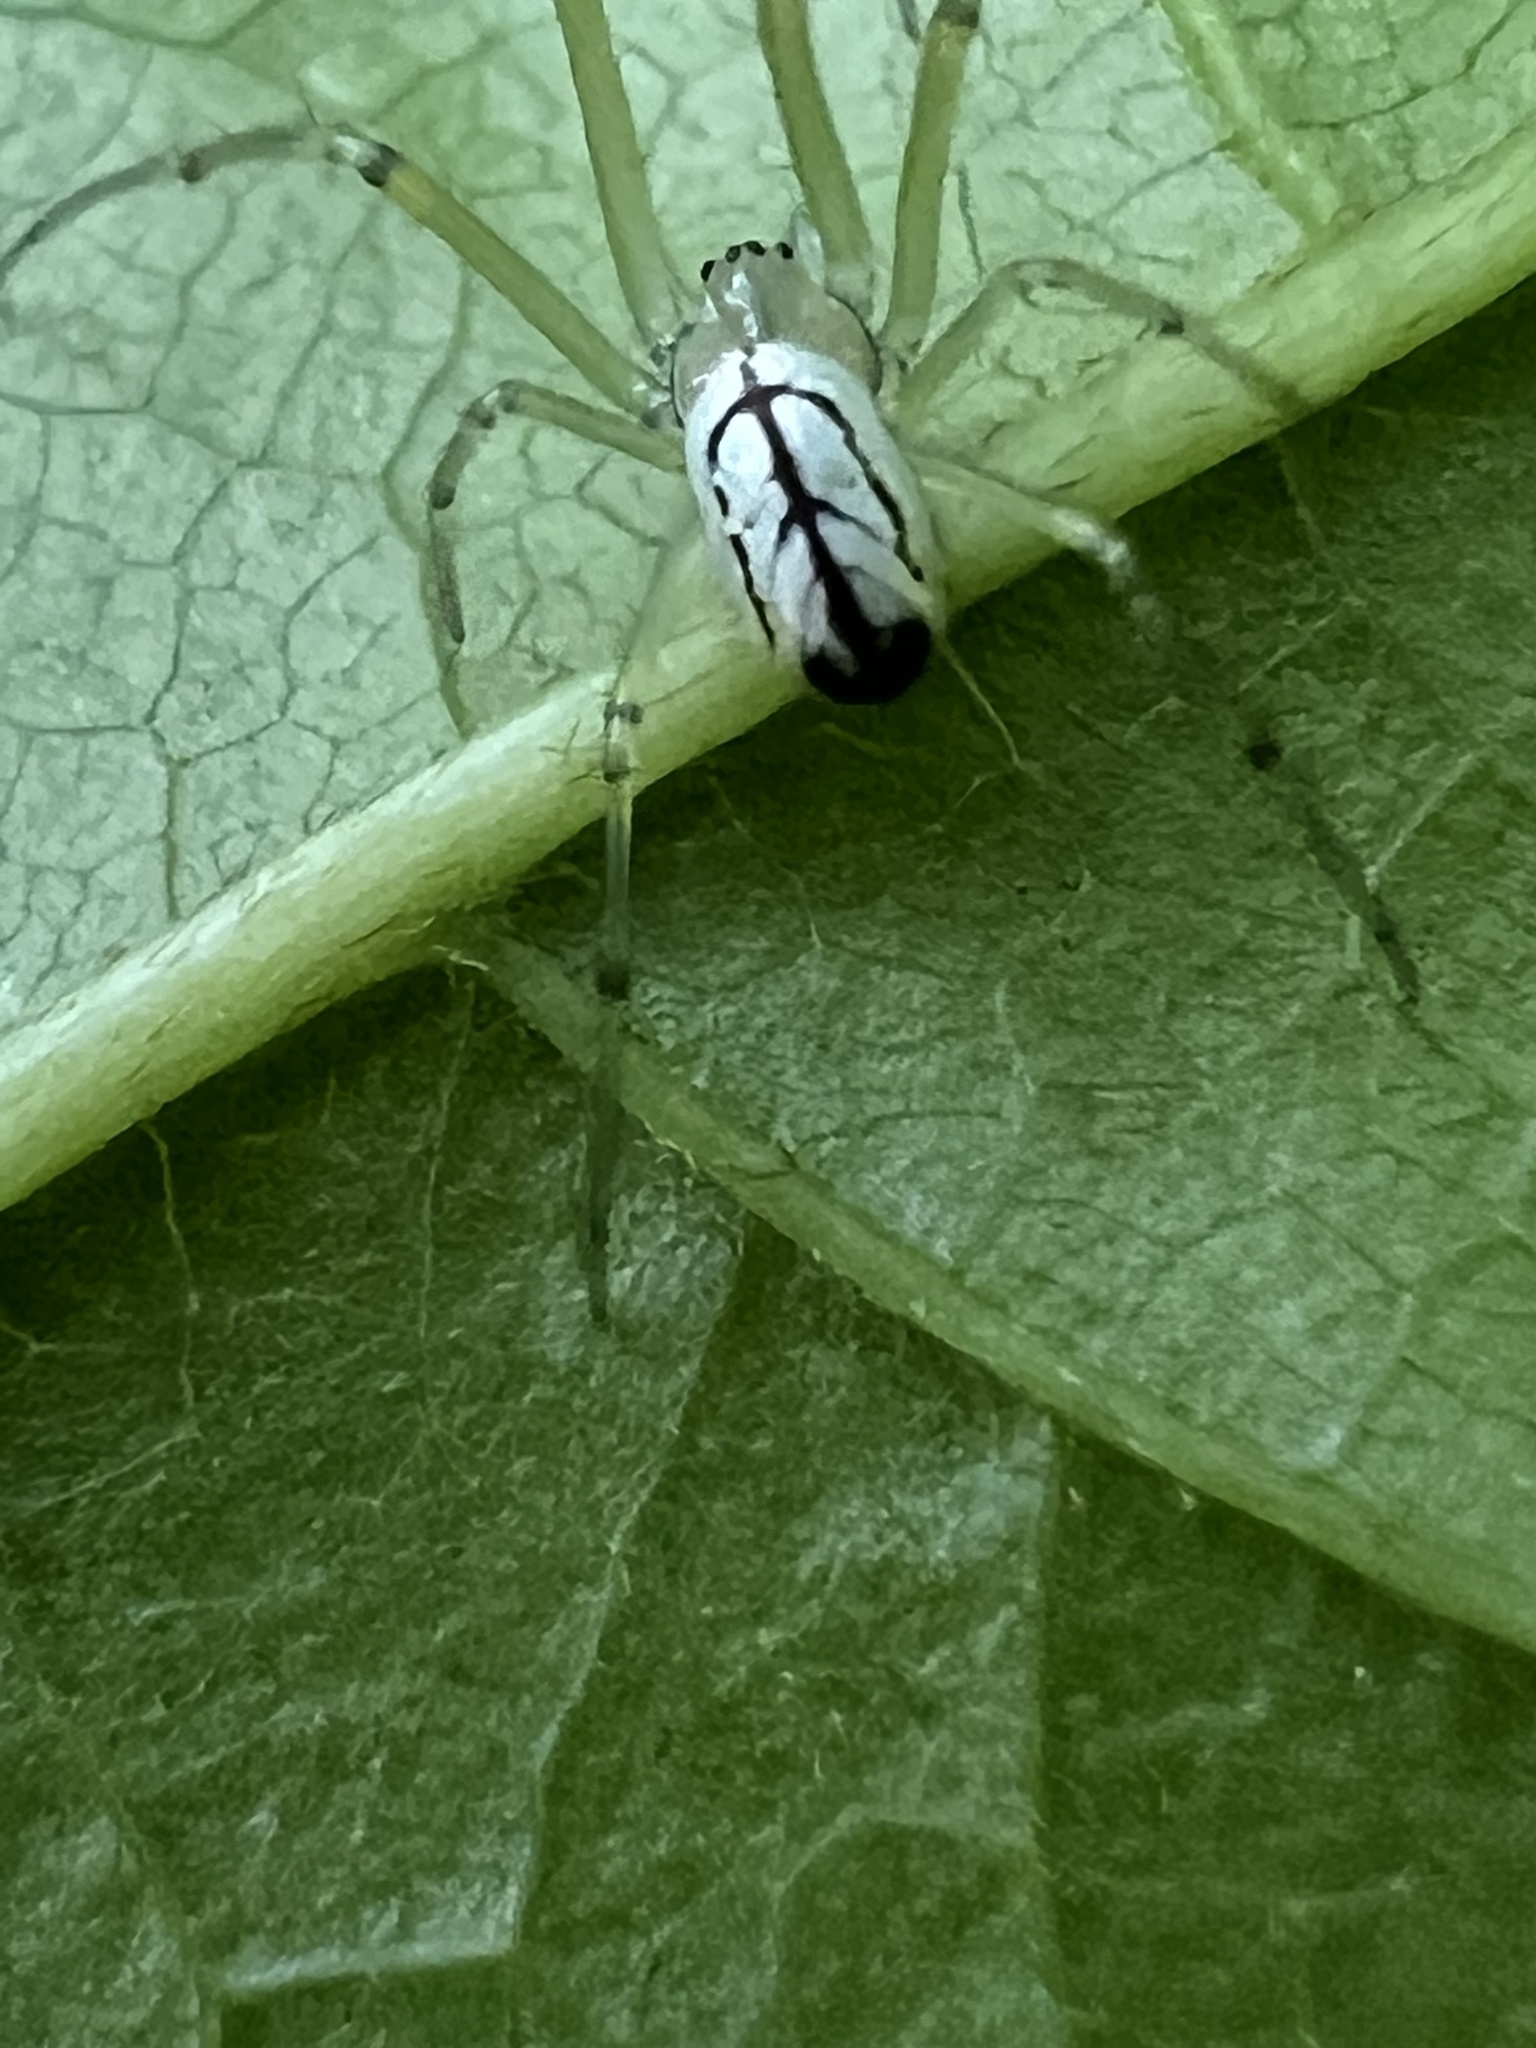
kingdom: Animalia
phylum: Arthropoda
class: Arachnida
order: Araneae
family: Tetragnathidae
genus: Leucauge
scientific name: Leucauge venusta
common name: Longjawed orb weavers
